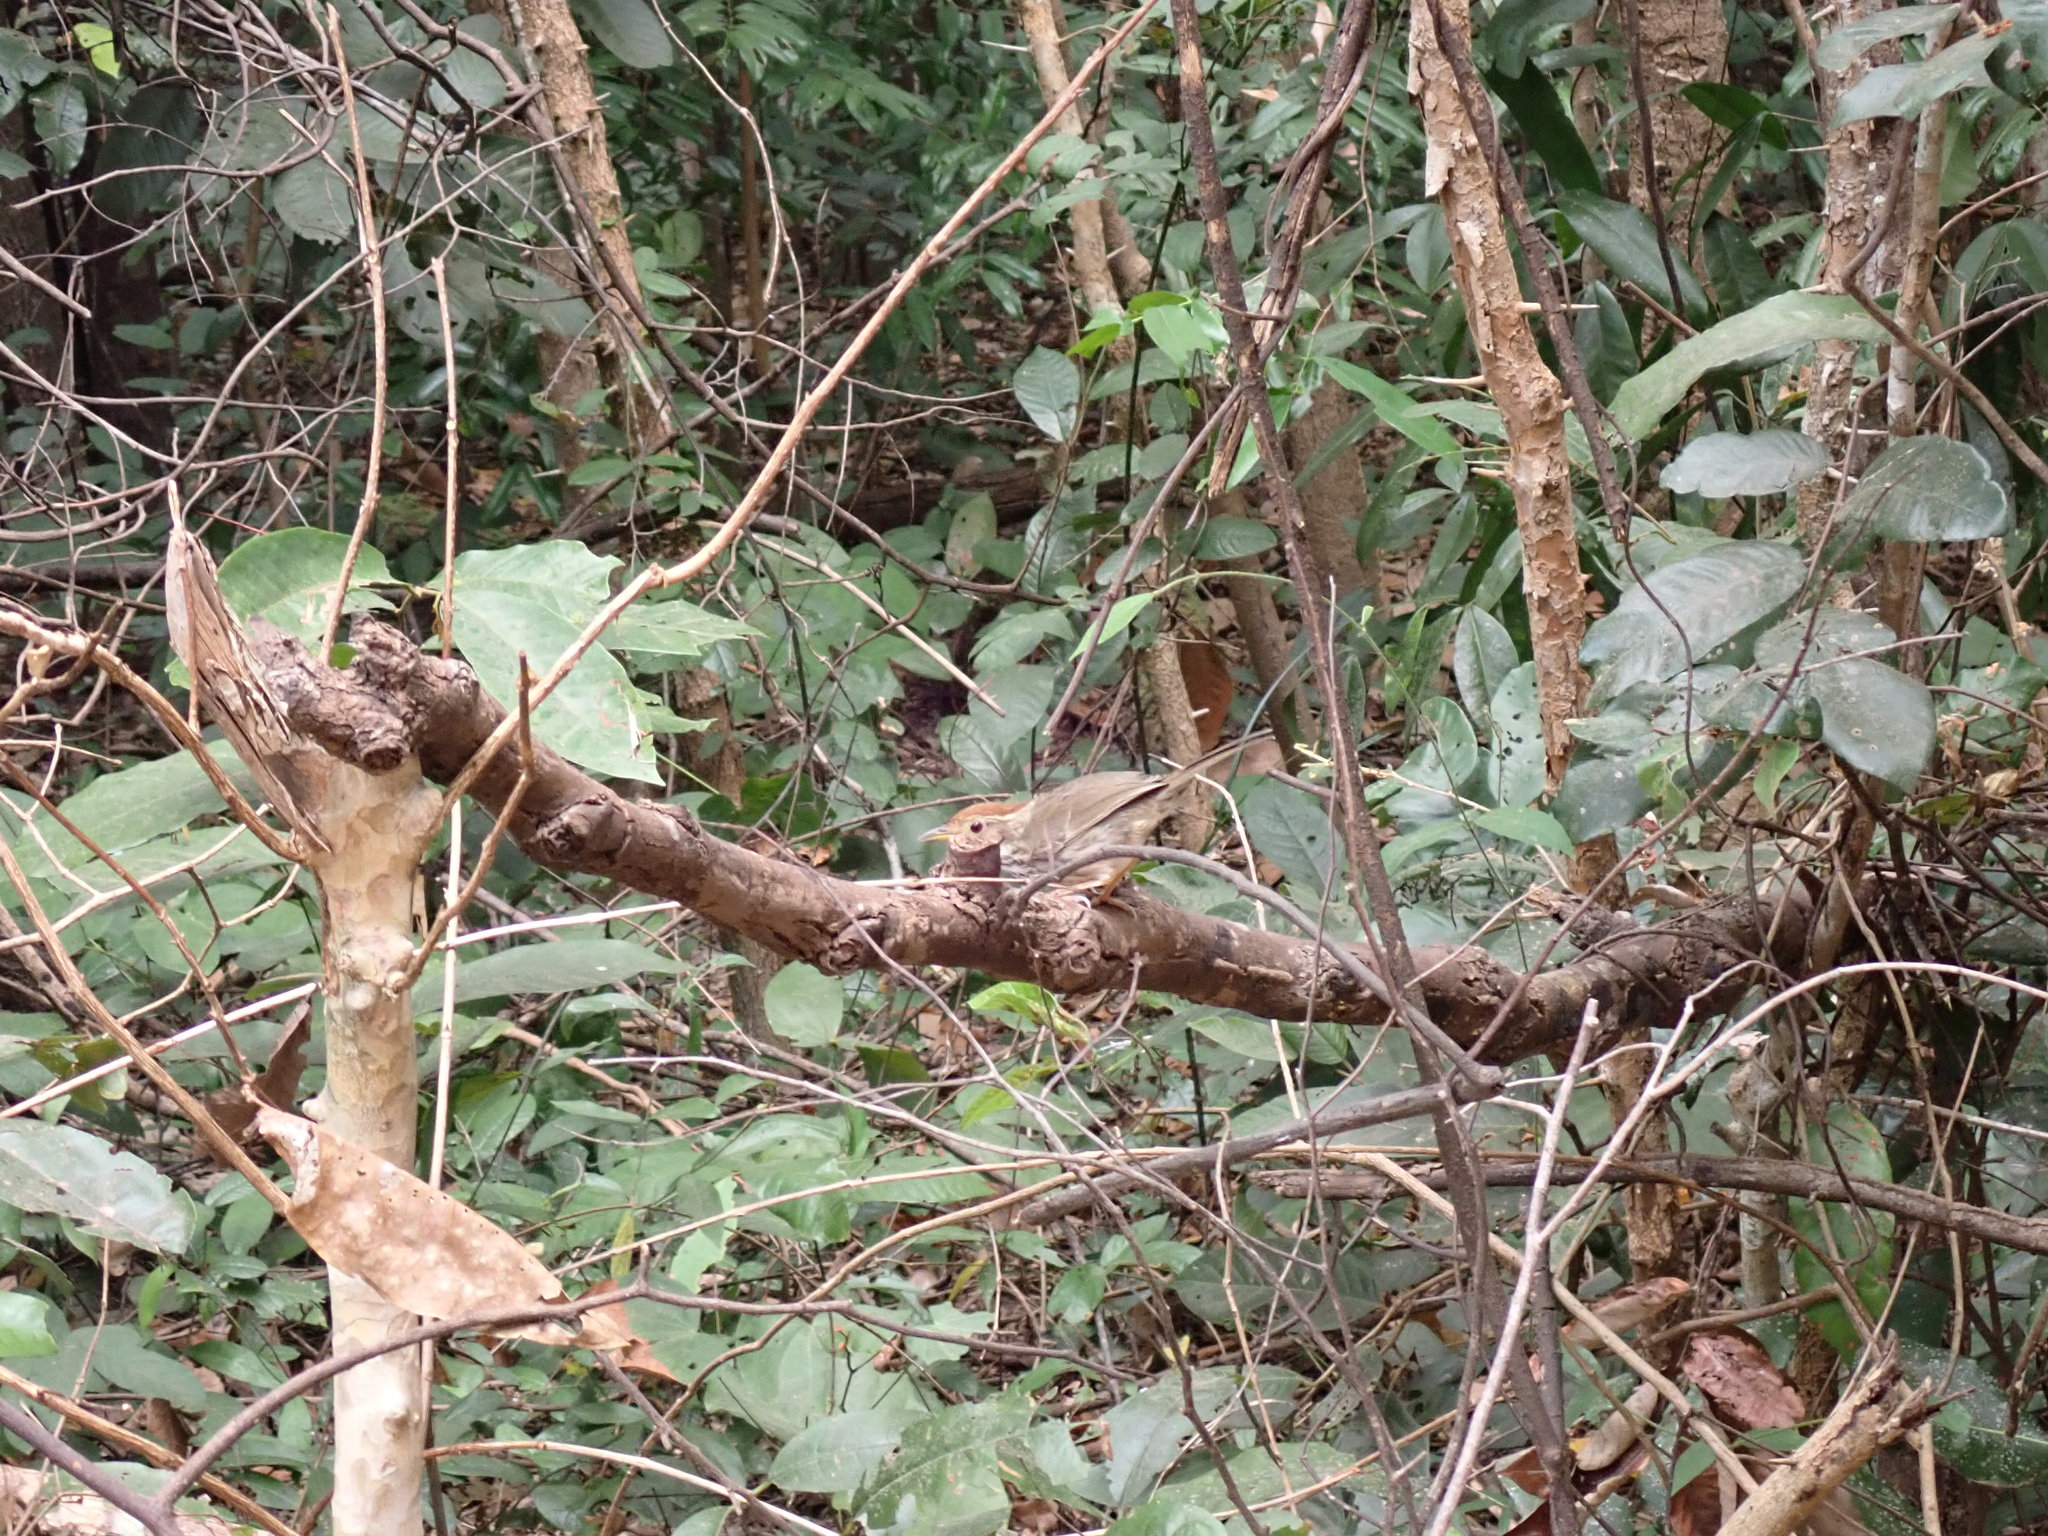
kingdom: Animalia
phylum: Chordata
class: Aves
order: Passeriformes
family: Pellorneidae
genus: Pellorneum
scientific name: Pellorneum ruficeps
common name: Puff-throated babbler
